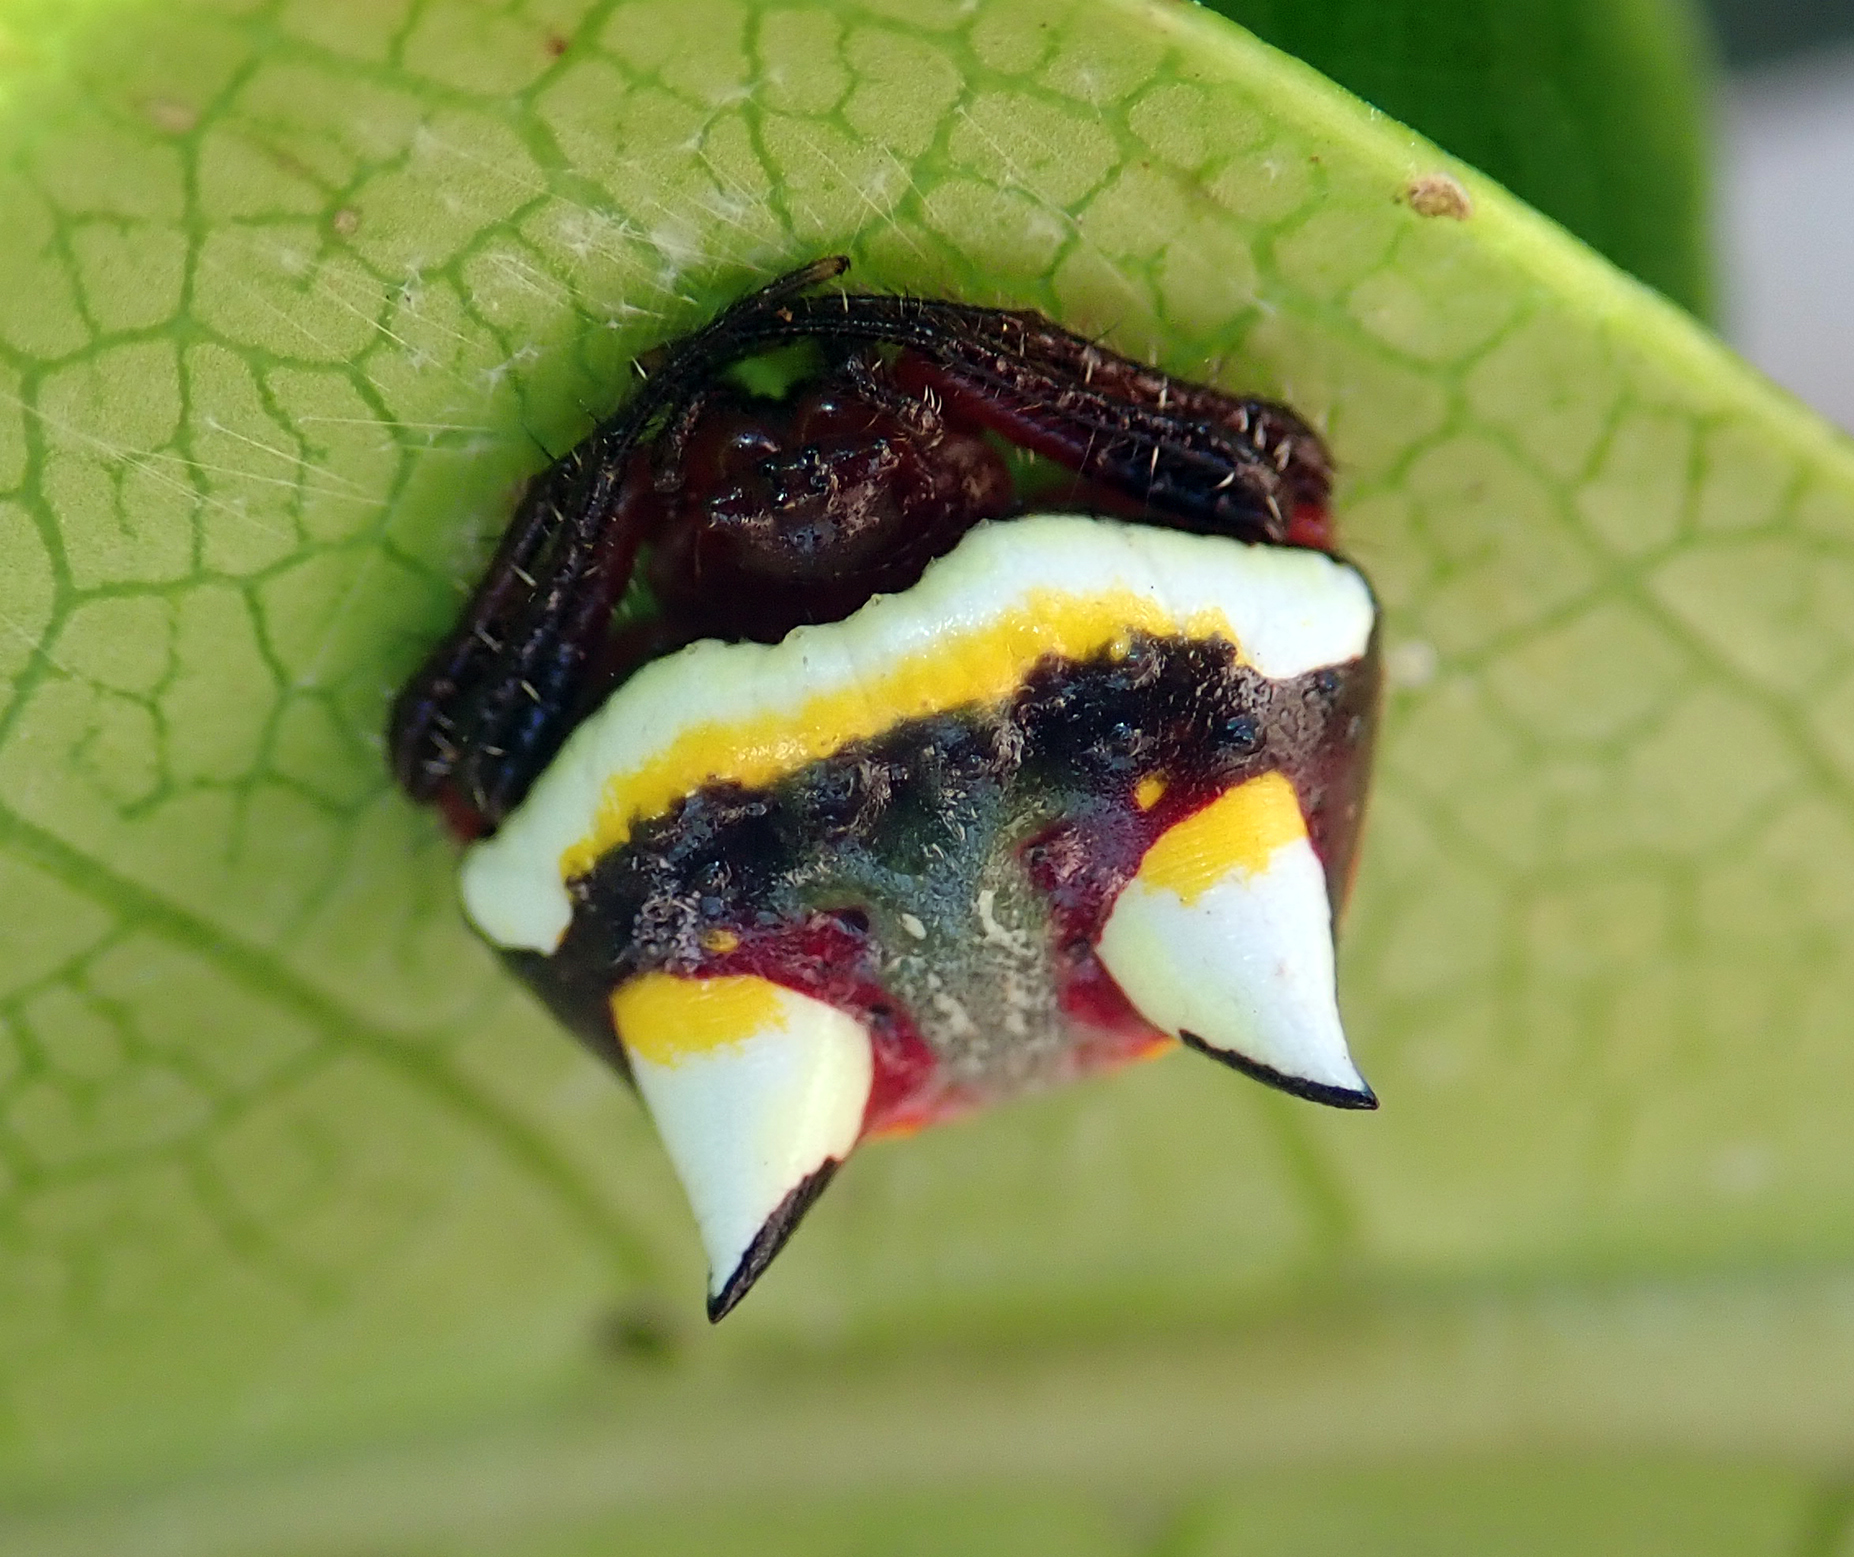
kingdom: Animalia
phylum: Arthropoda
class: Arachnida
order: Araneae
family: Araneidae
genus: Poecilopachys
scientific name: Poecilopachys australasia
